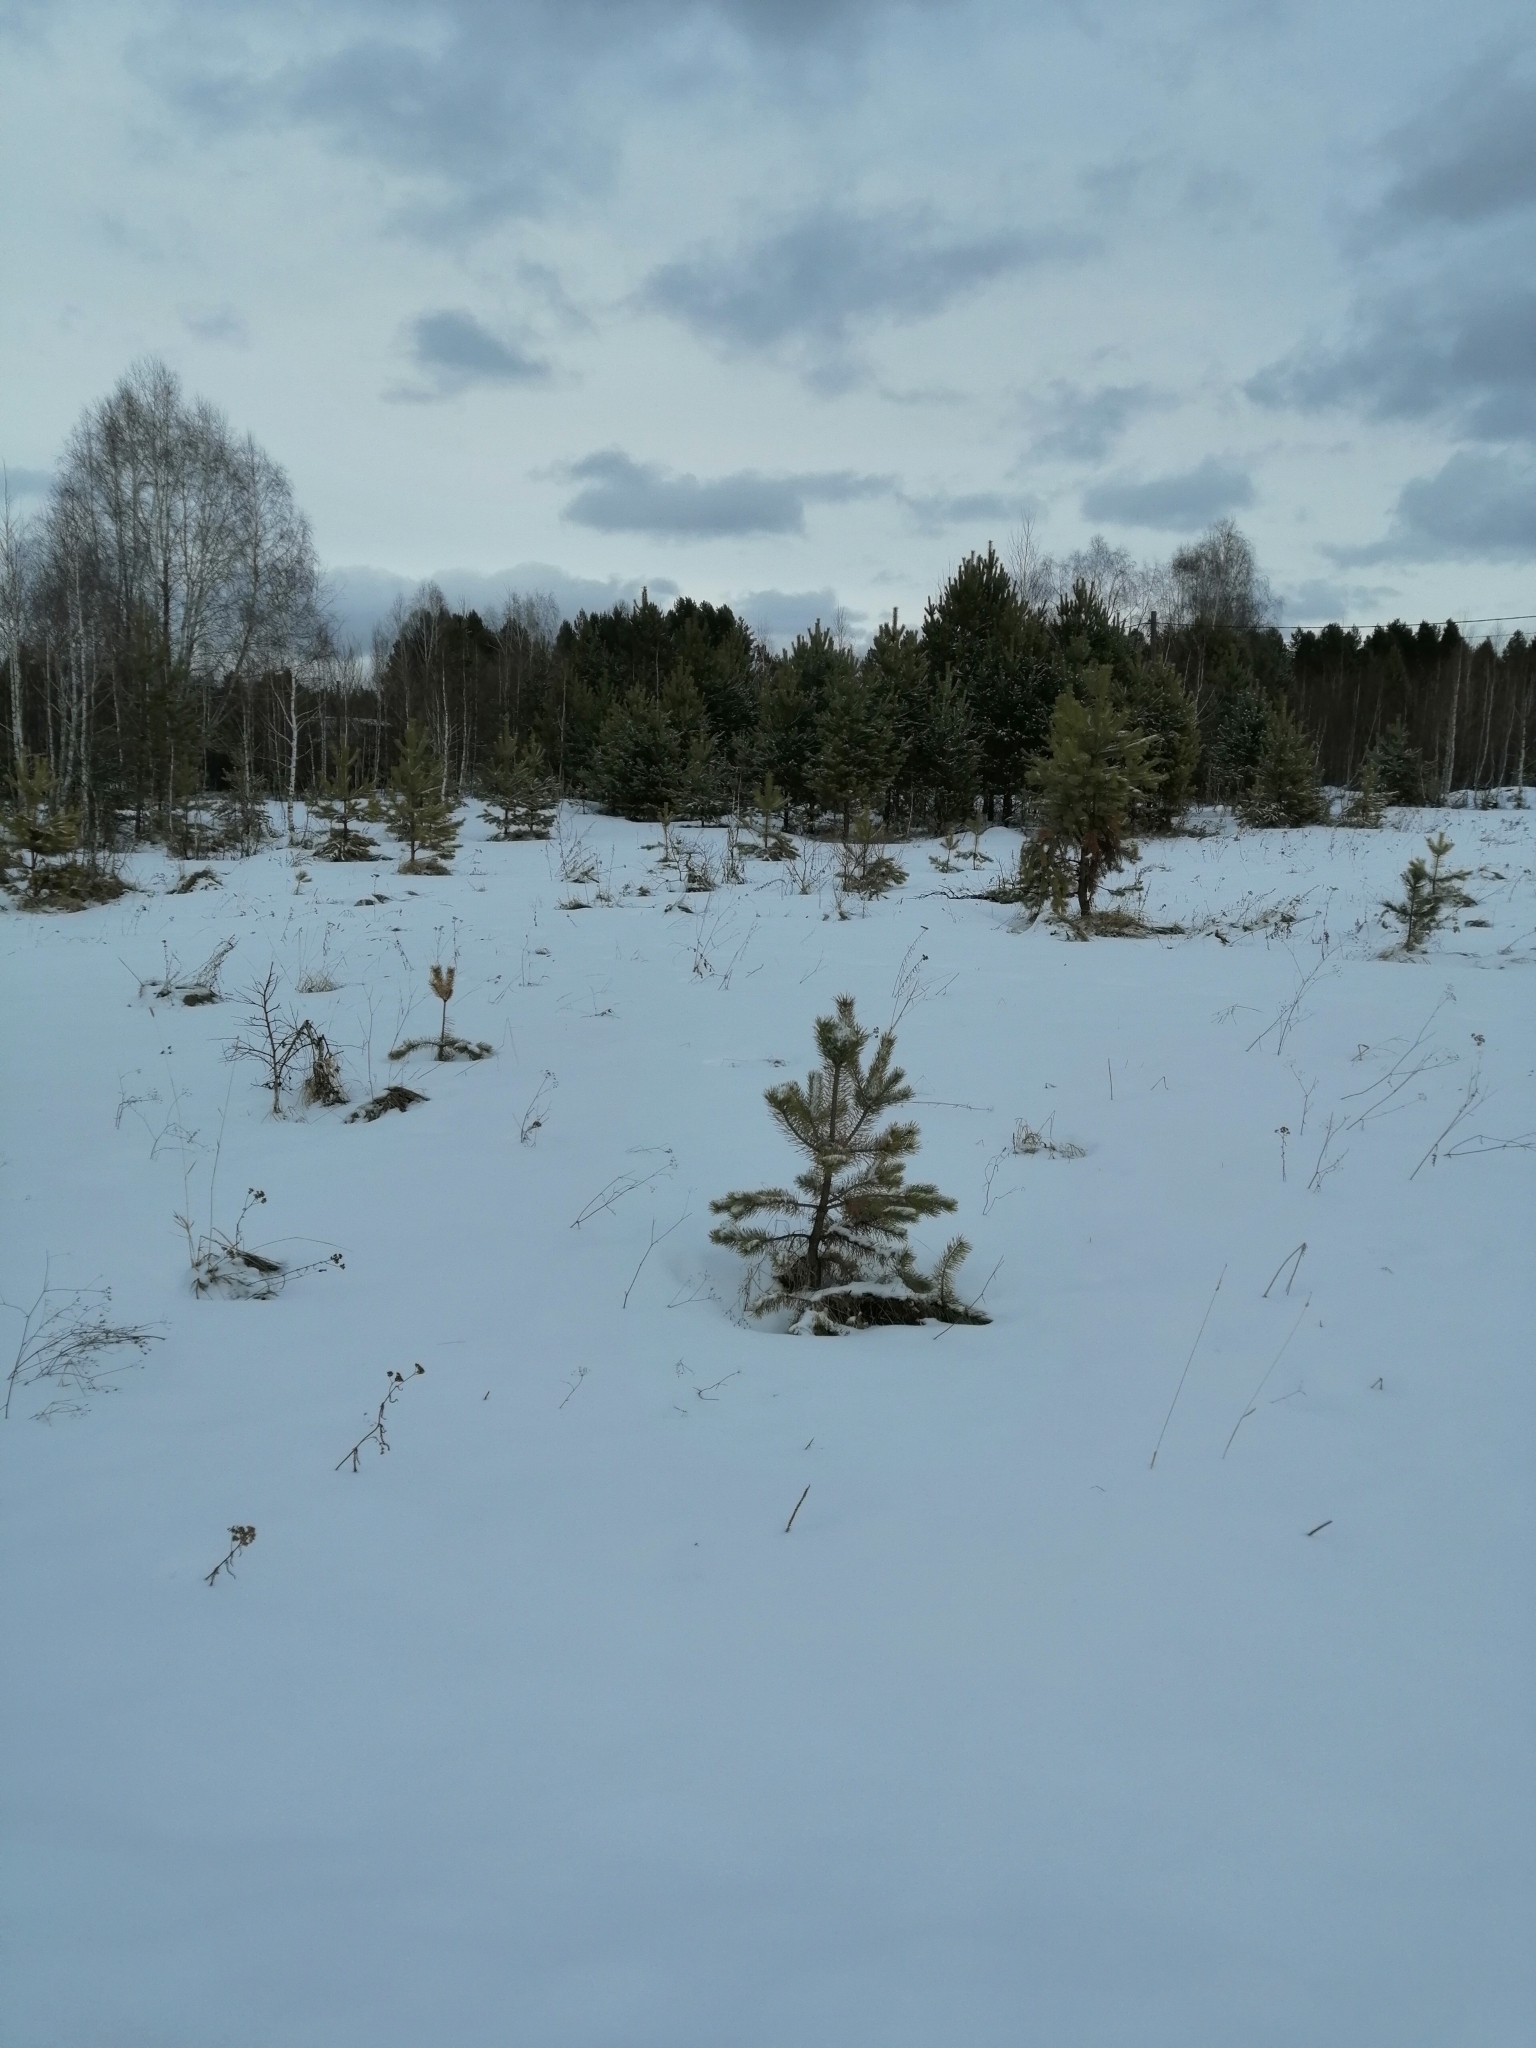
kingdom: Plantae
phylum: Tracheophyta
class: Pinopsida
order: Pinales
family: Pinaceae
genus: Pinus
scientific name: Pinus sylvestris
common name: Scots pine
